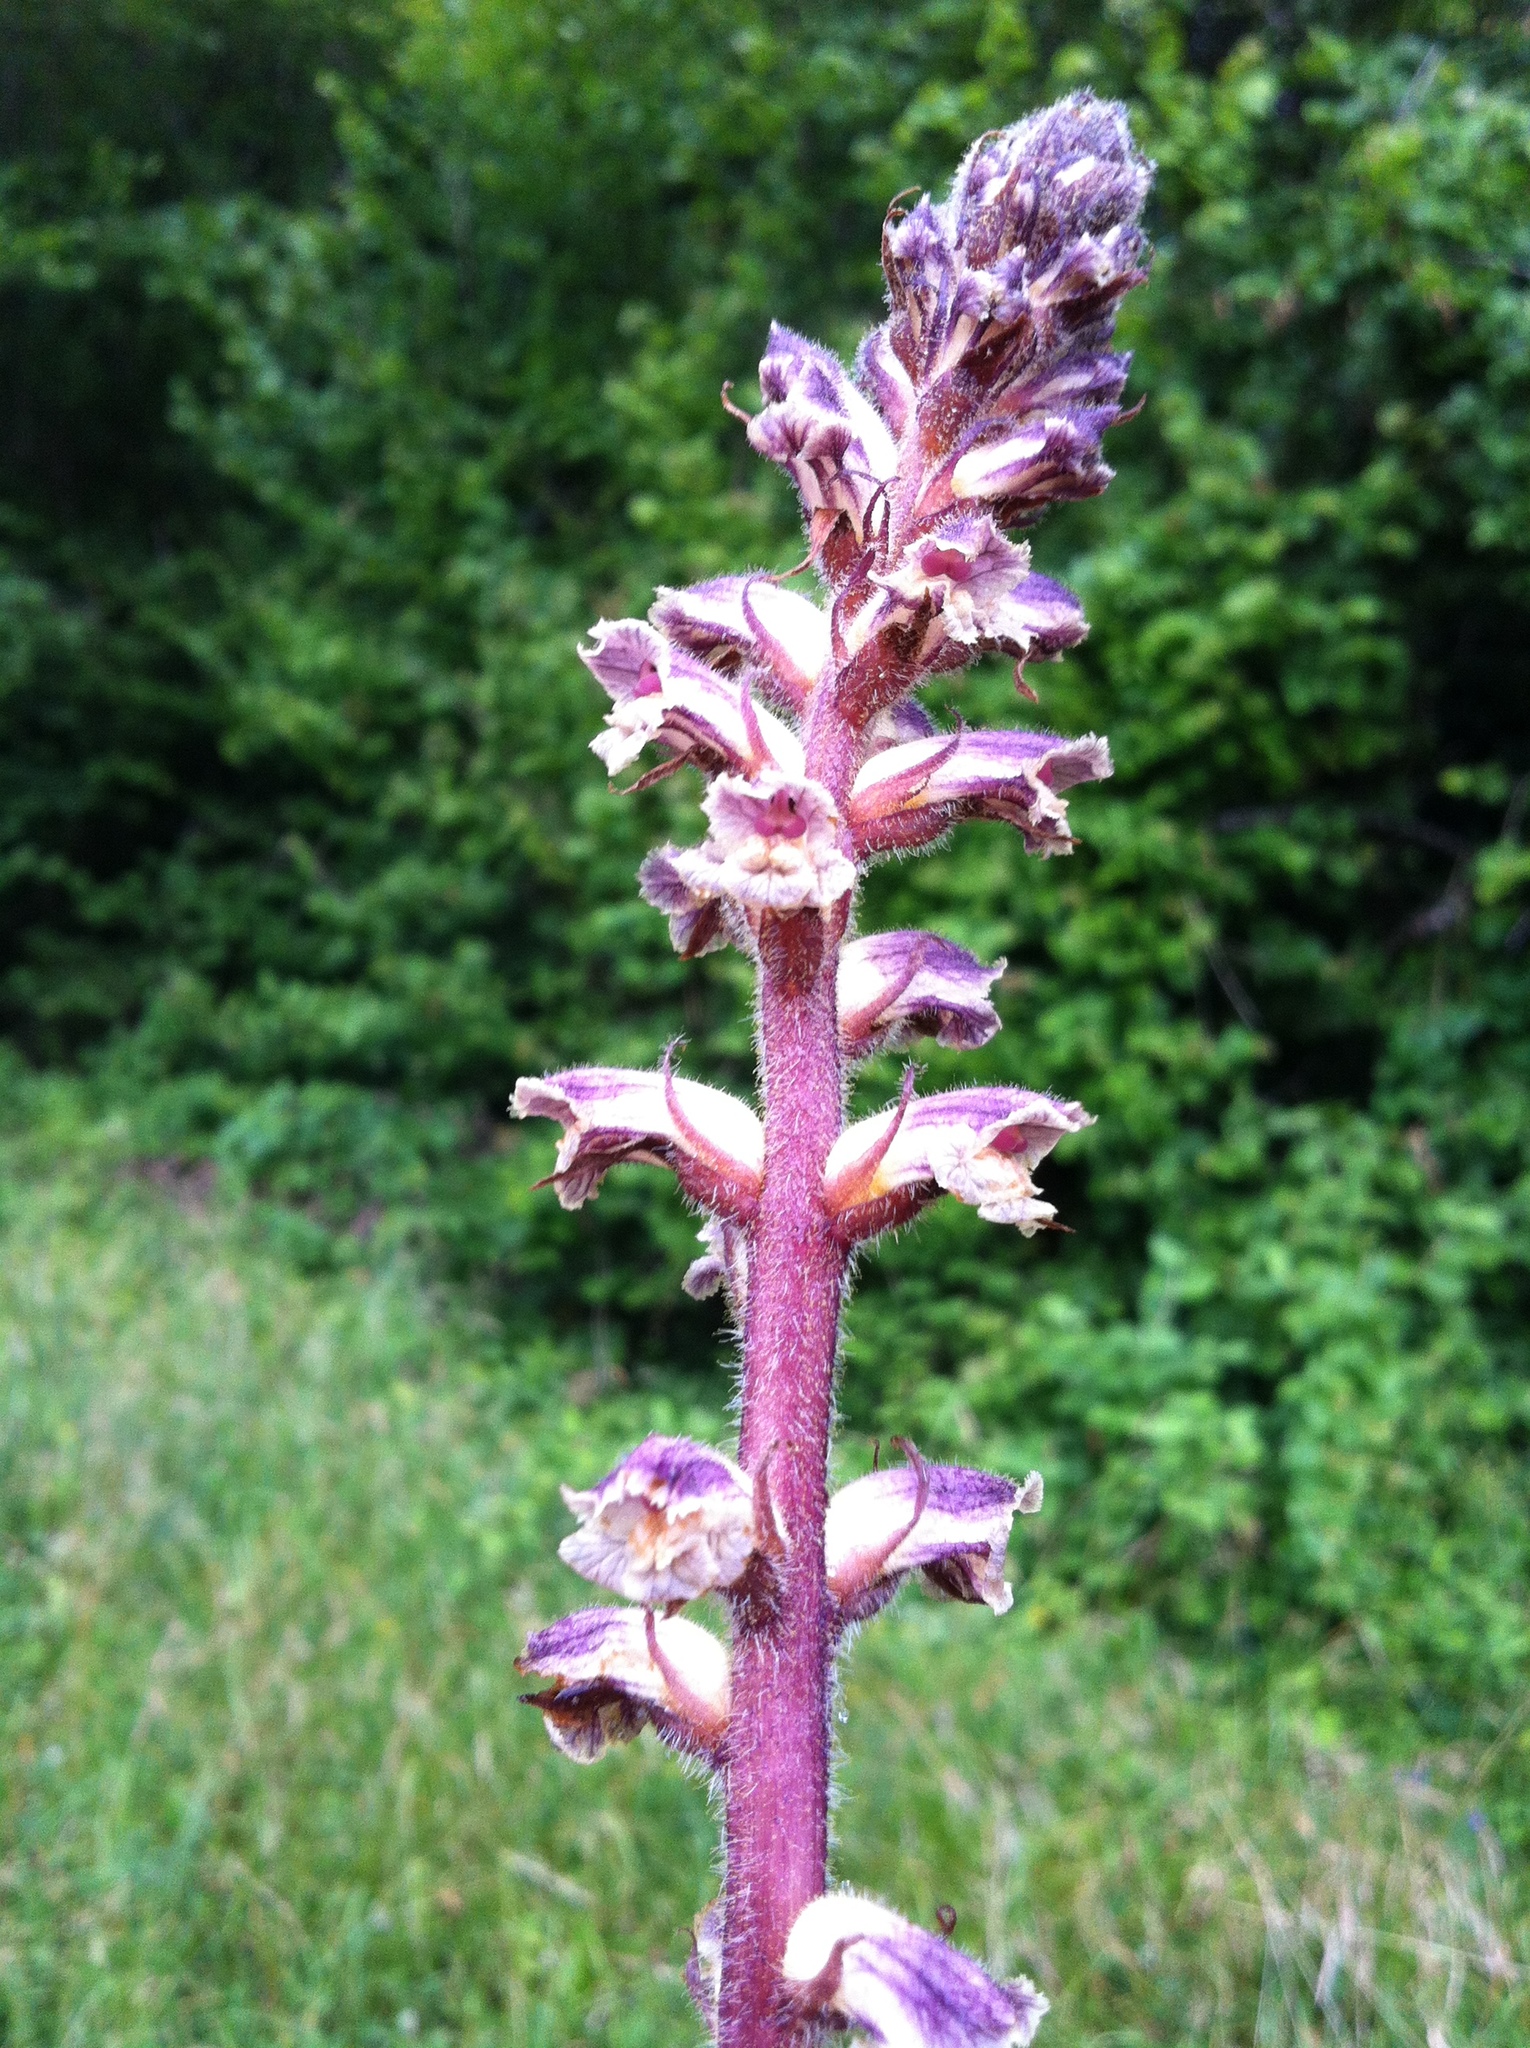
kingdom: Plantae
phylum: Tracheophyta
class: Magnoliopsida
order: Lamiales
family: Orobanchaceae
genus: Orobanche
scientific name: Orobanche minor
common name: Common broomrape
